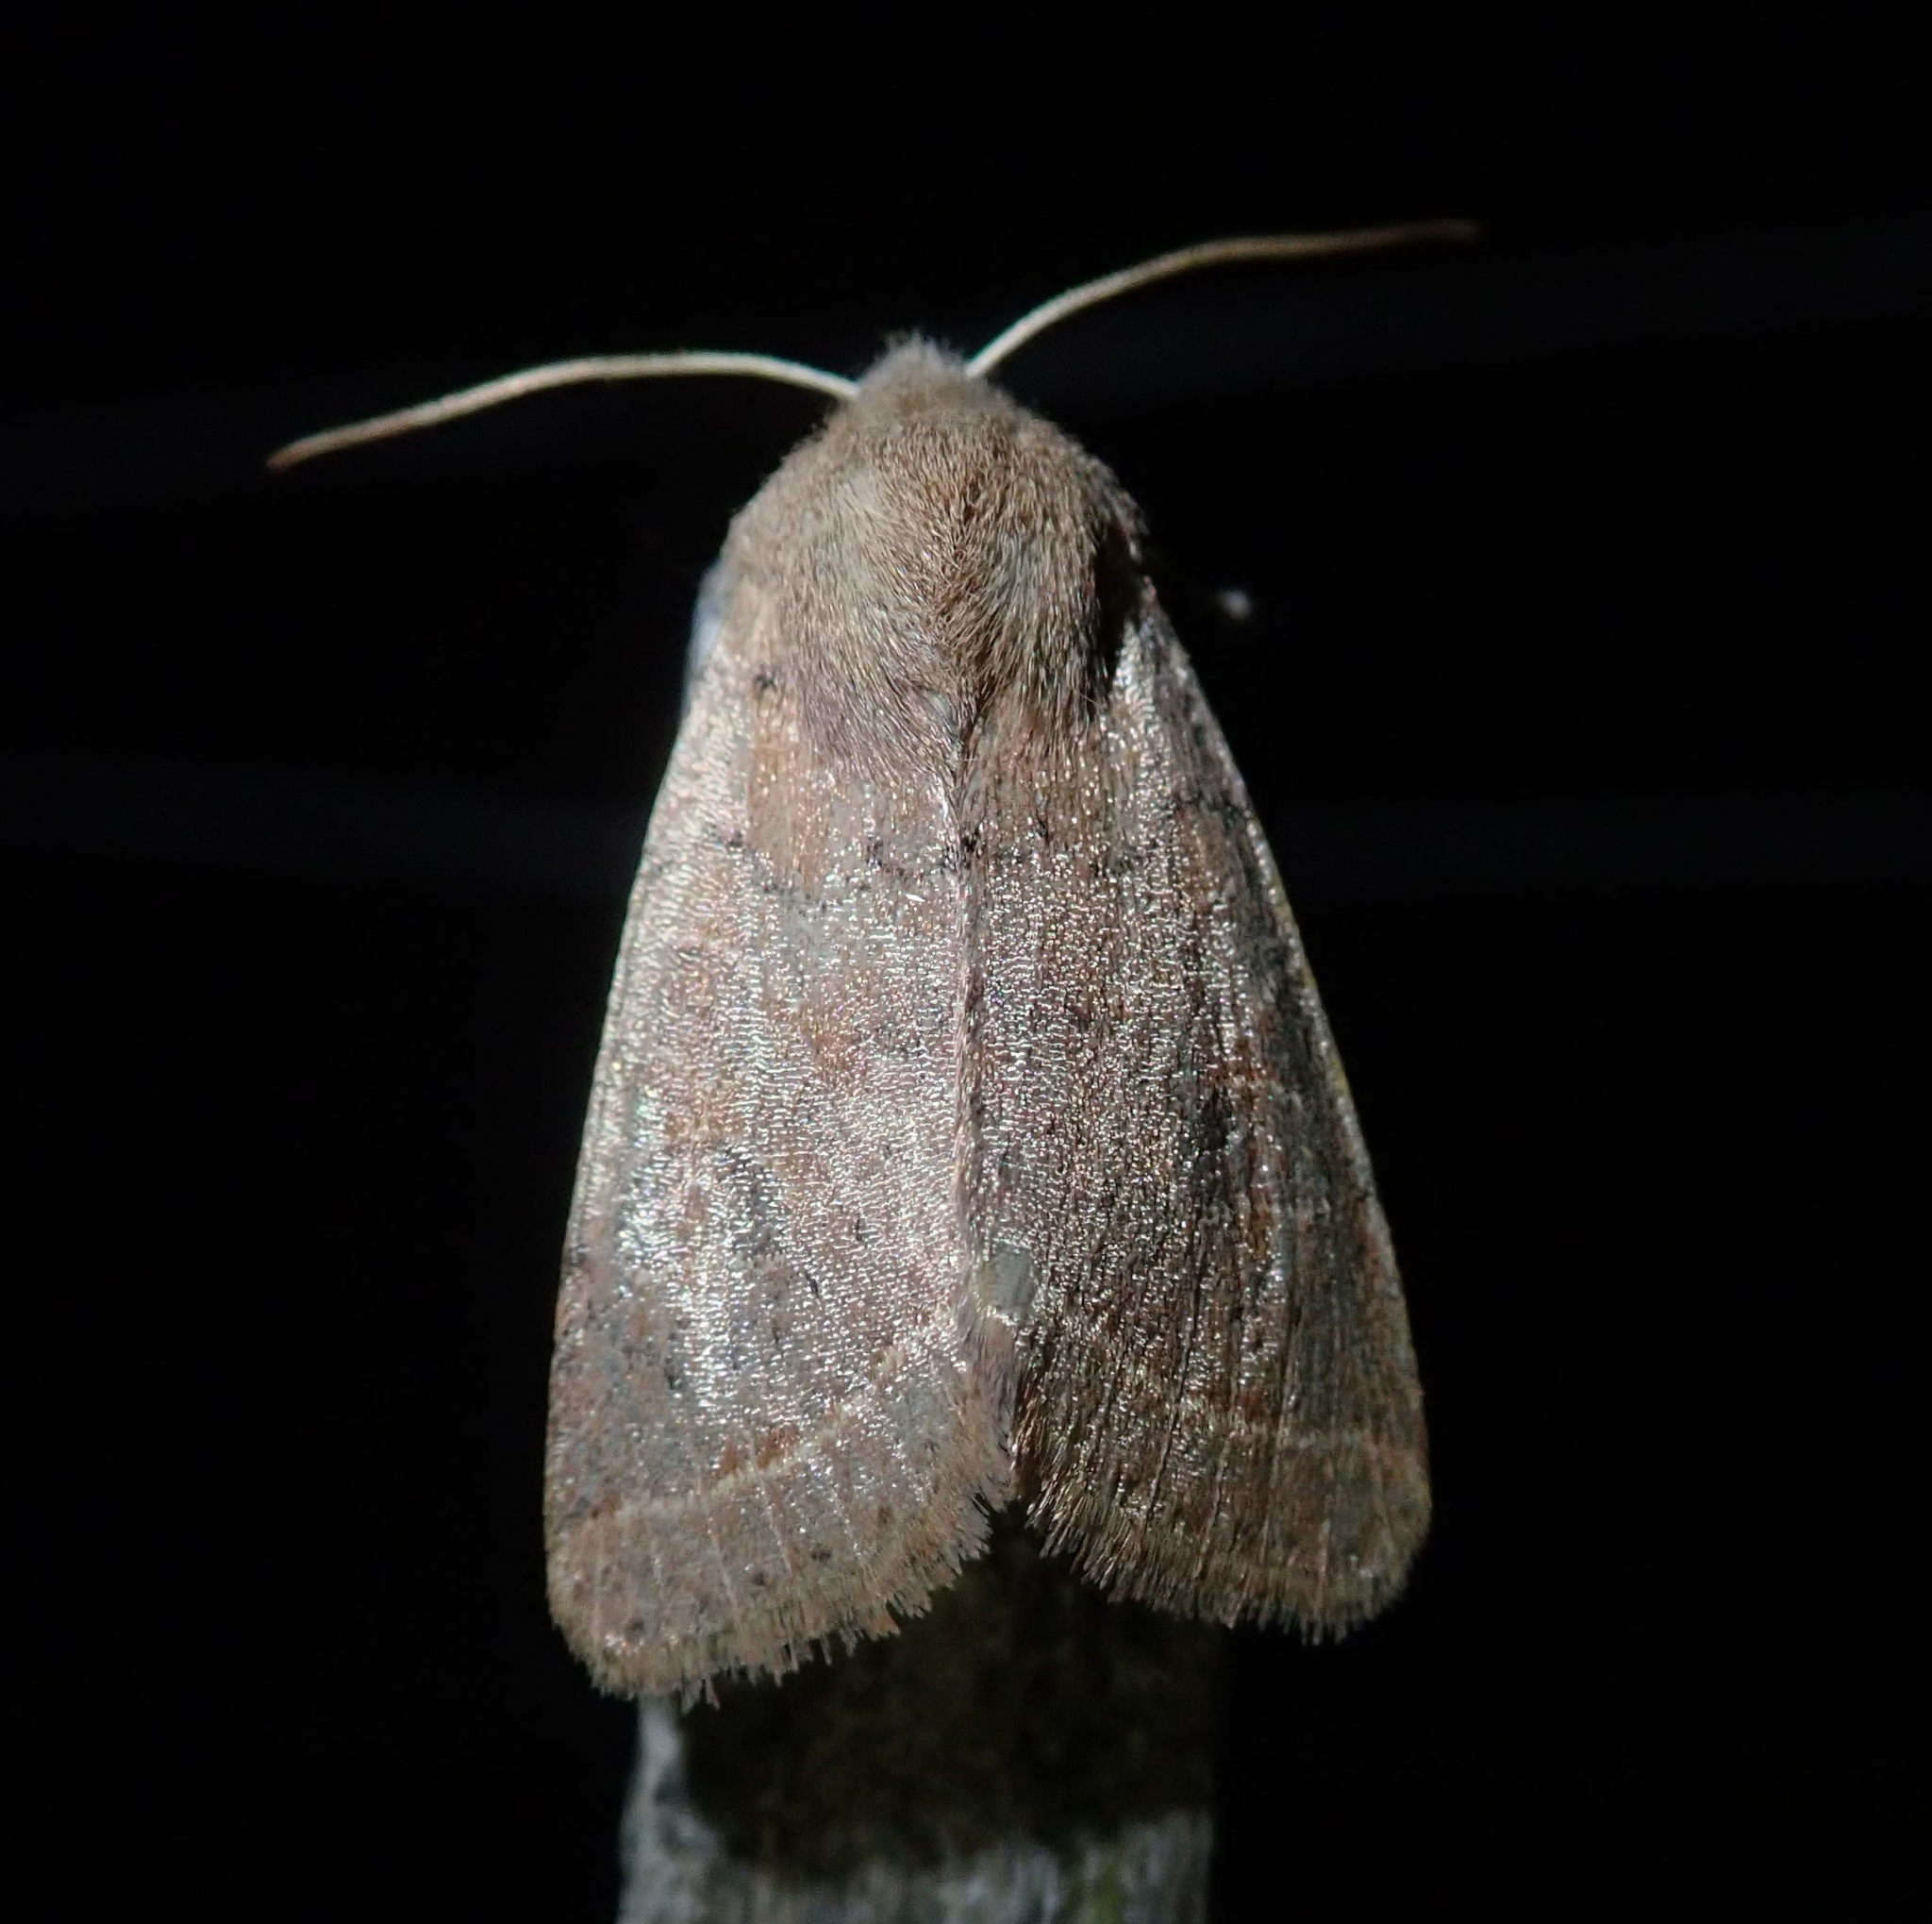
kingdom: Animalia
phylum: Arthropoda
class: Insecta
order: Lepidoptera
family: Noctuidae
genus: Orthosia
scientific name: Orthosia cerasi
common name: Common quaker
